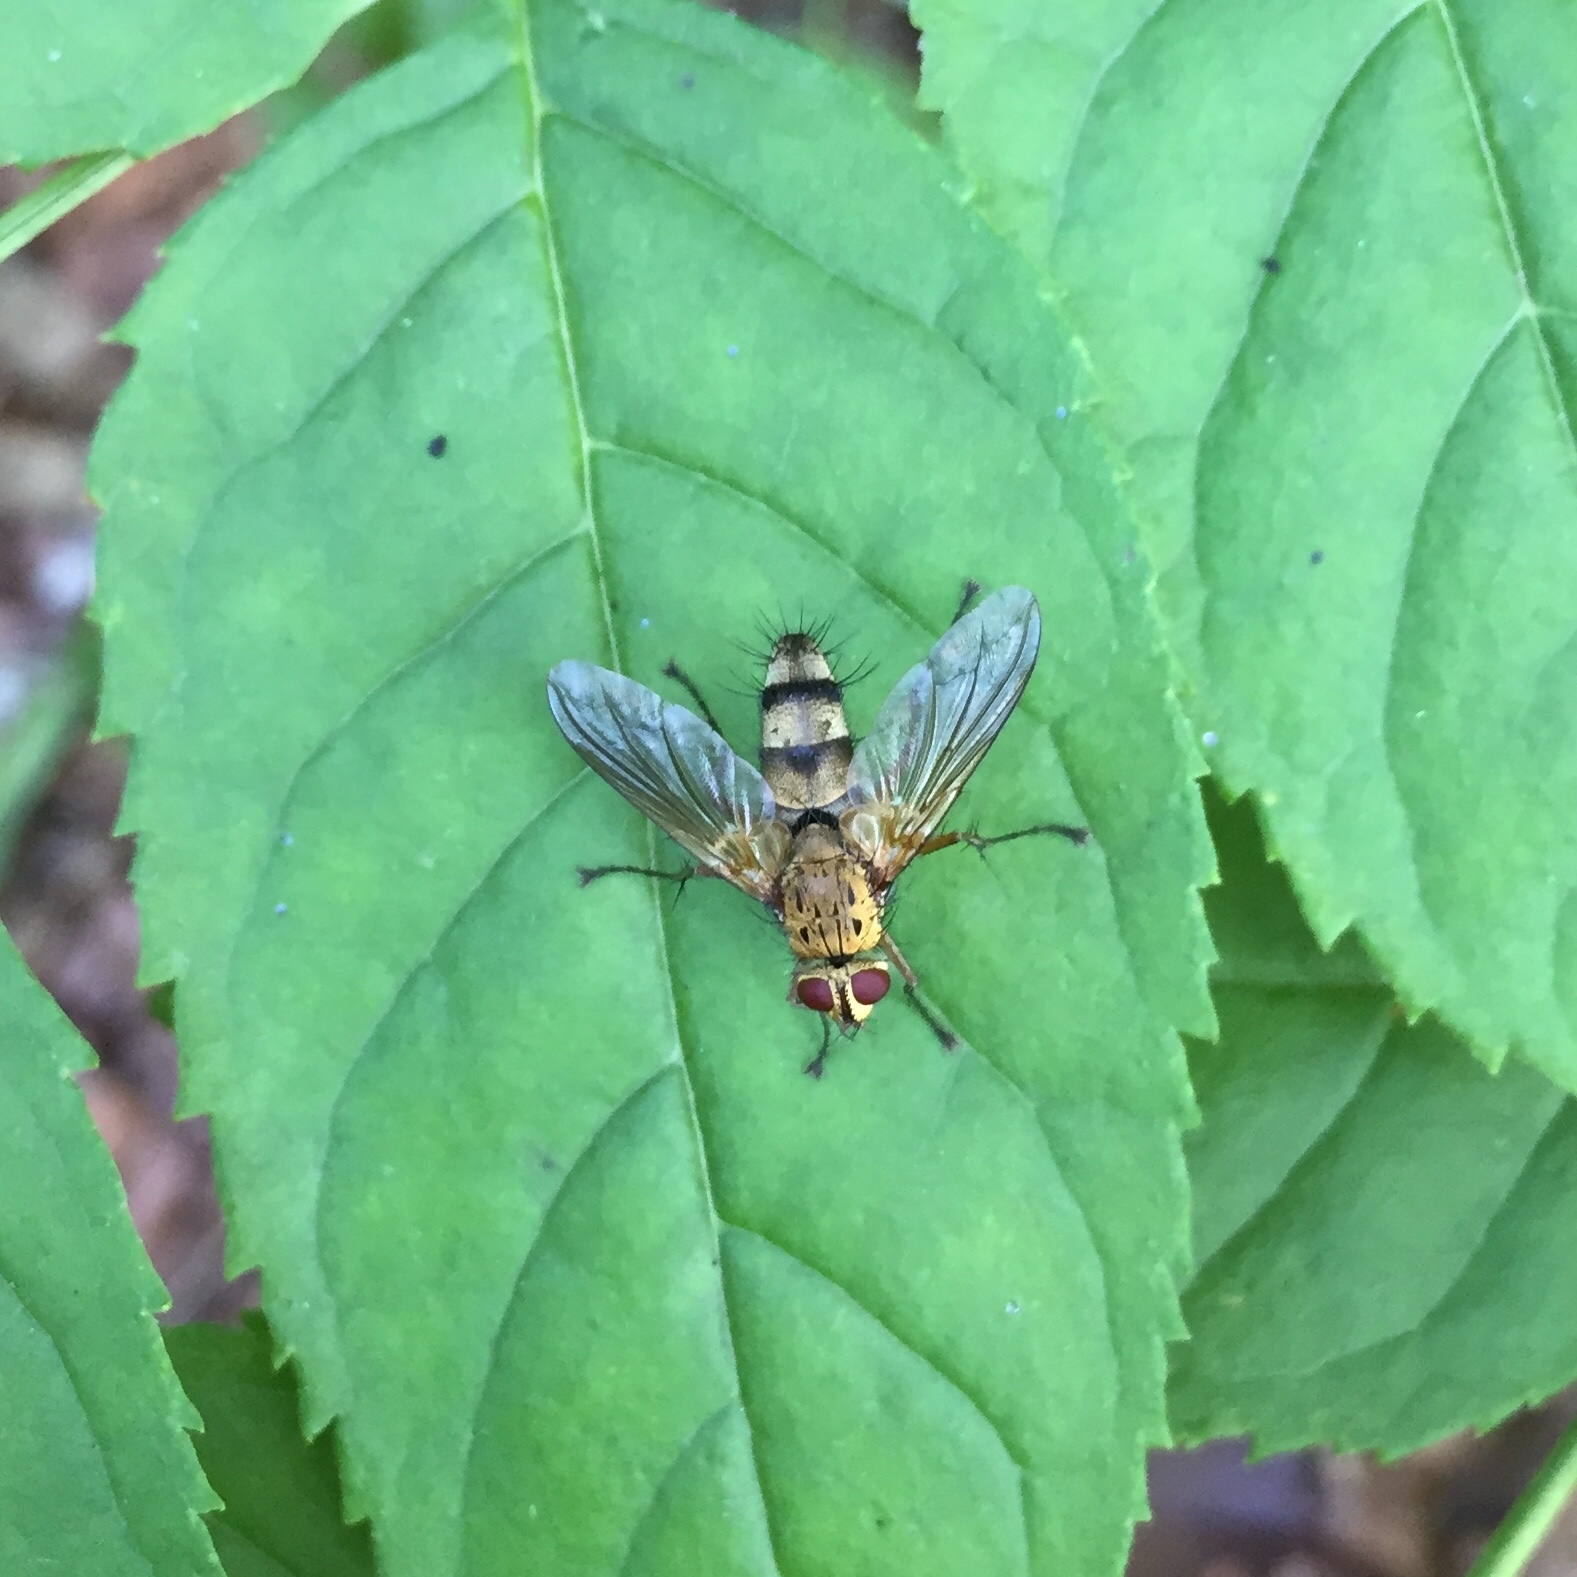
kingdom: Animalia
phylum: Arthropoda
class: Insecta
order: Diptera
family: Tachinidae
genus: Dexiosoma
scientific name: Dexiosoma caninum
